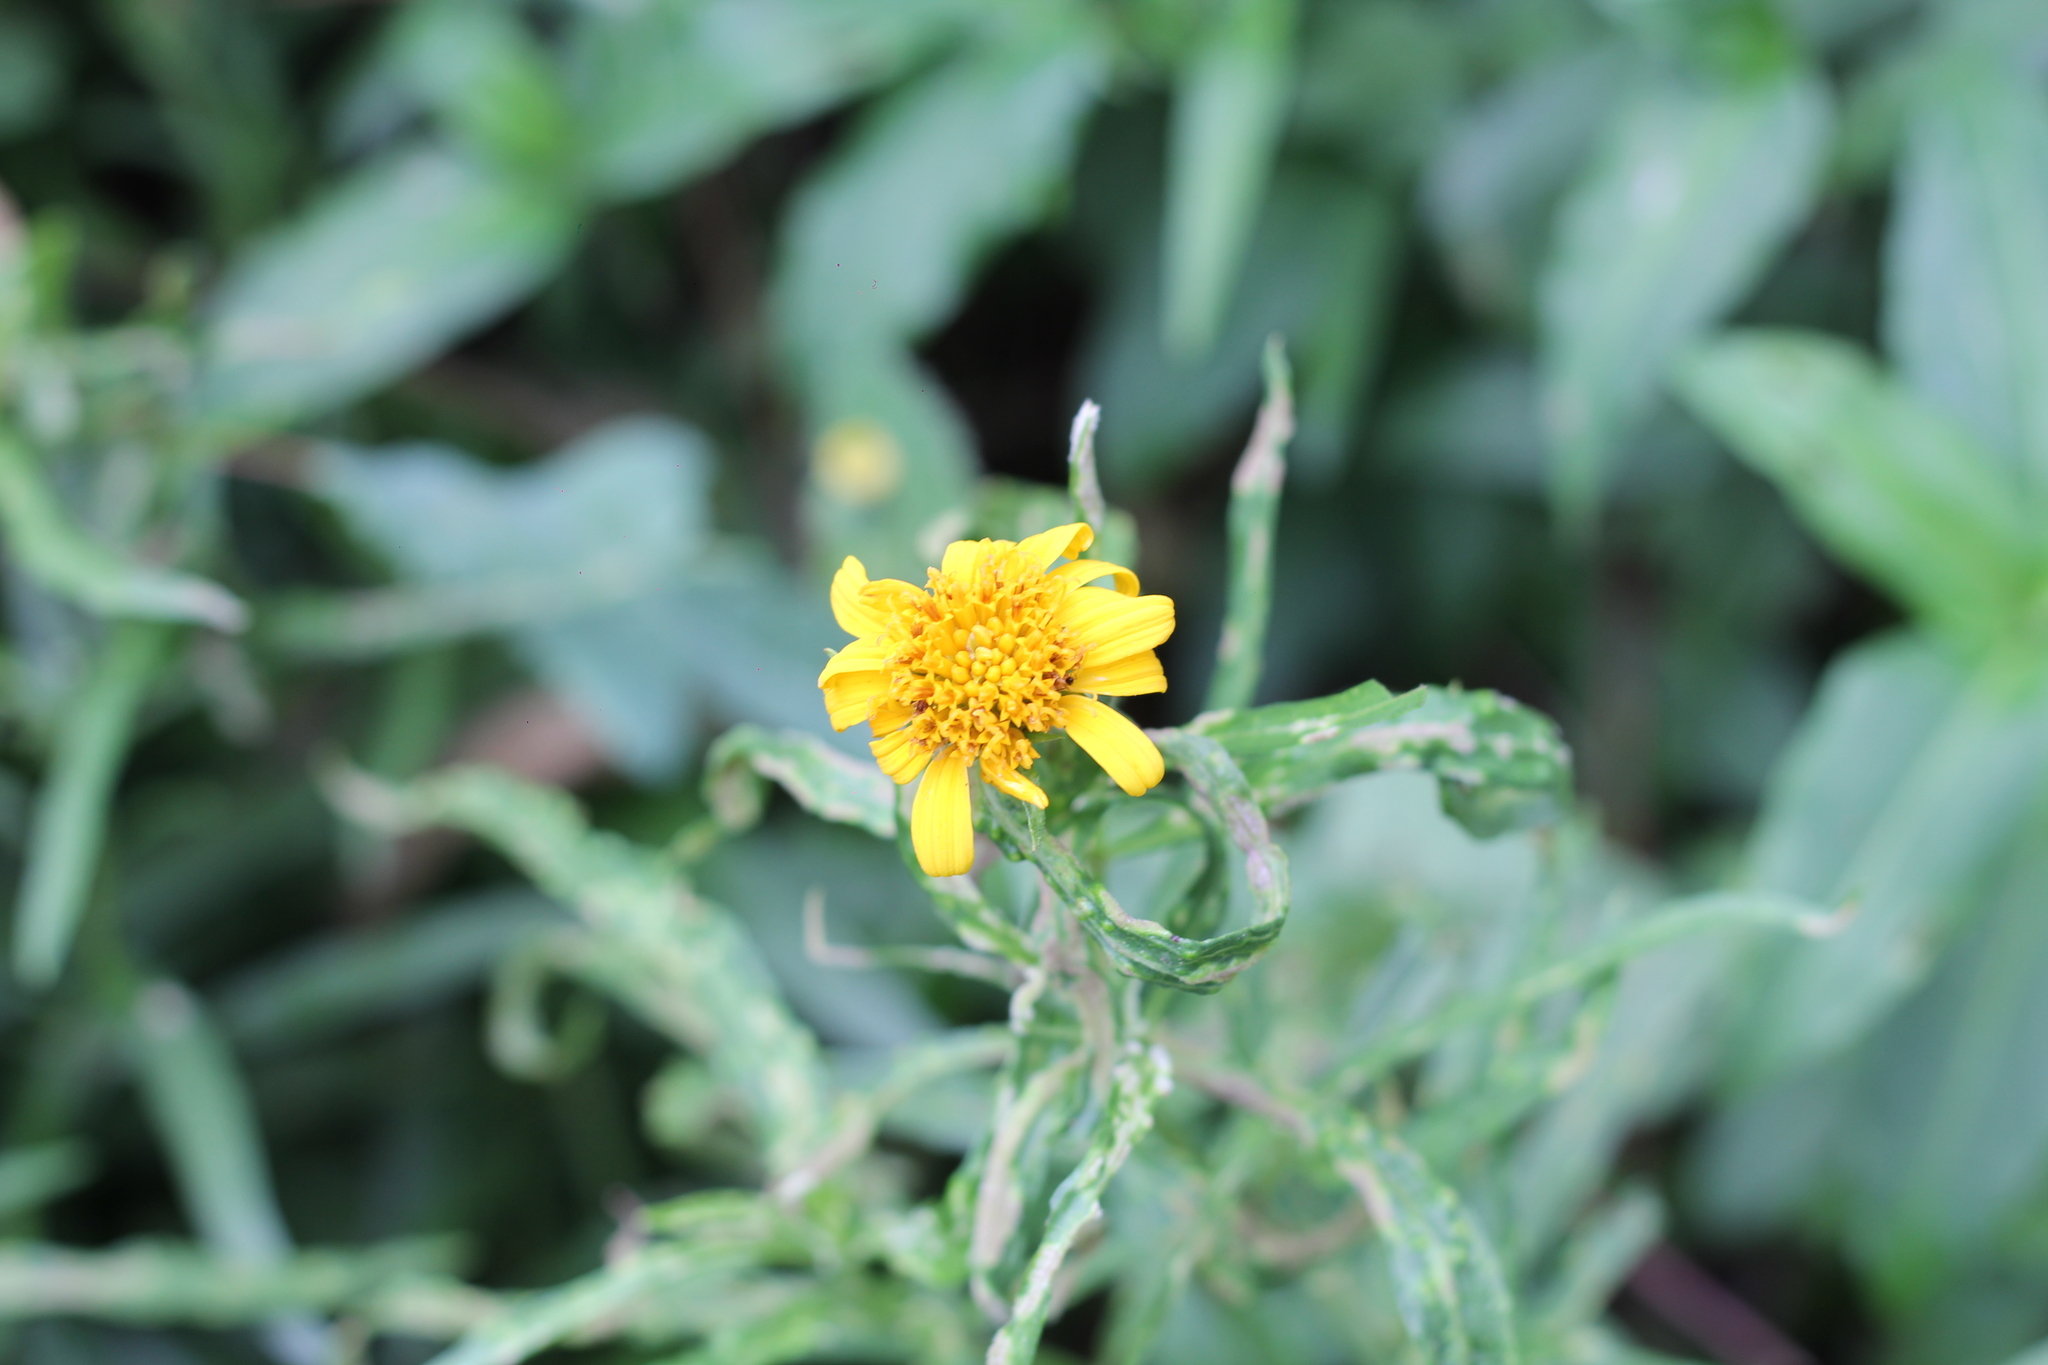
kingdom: Plantae
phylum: Tracheophyta
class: Magnoliopsida
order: Asterales
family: Asteraceae
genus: Pascalia
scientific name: Pascalia glauca
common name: Beach creeping oxeye
